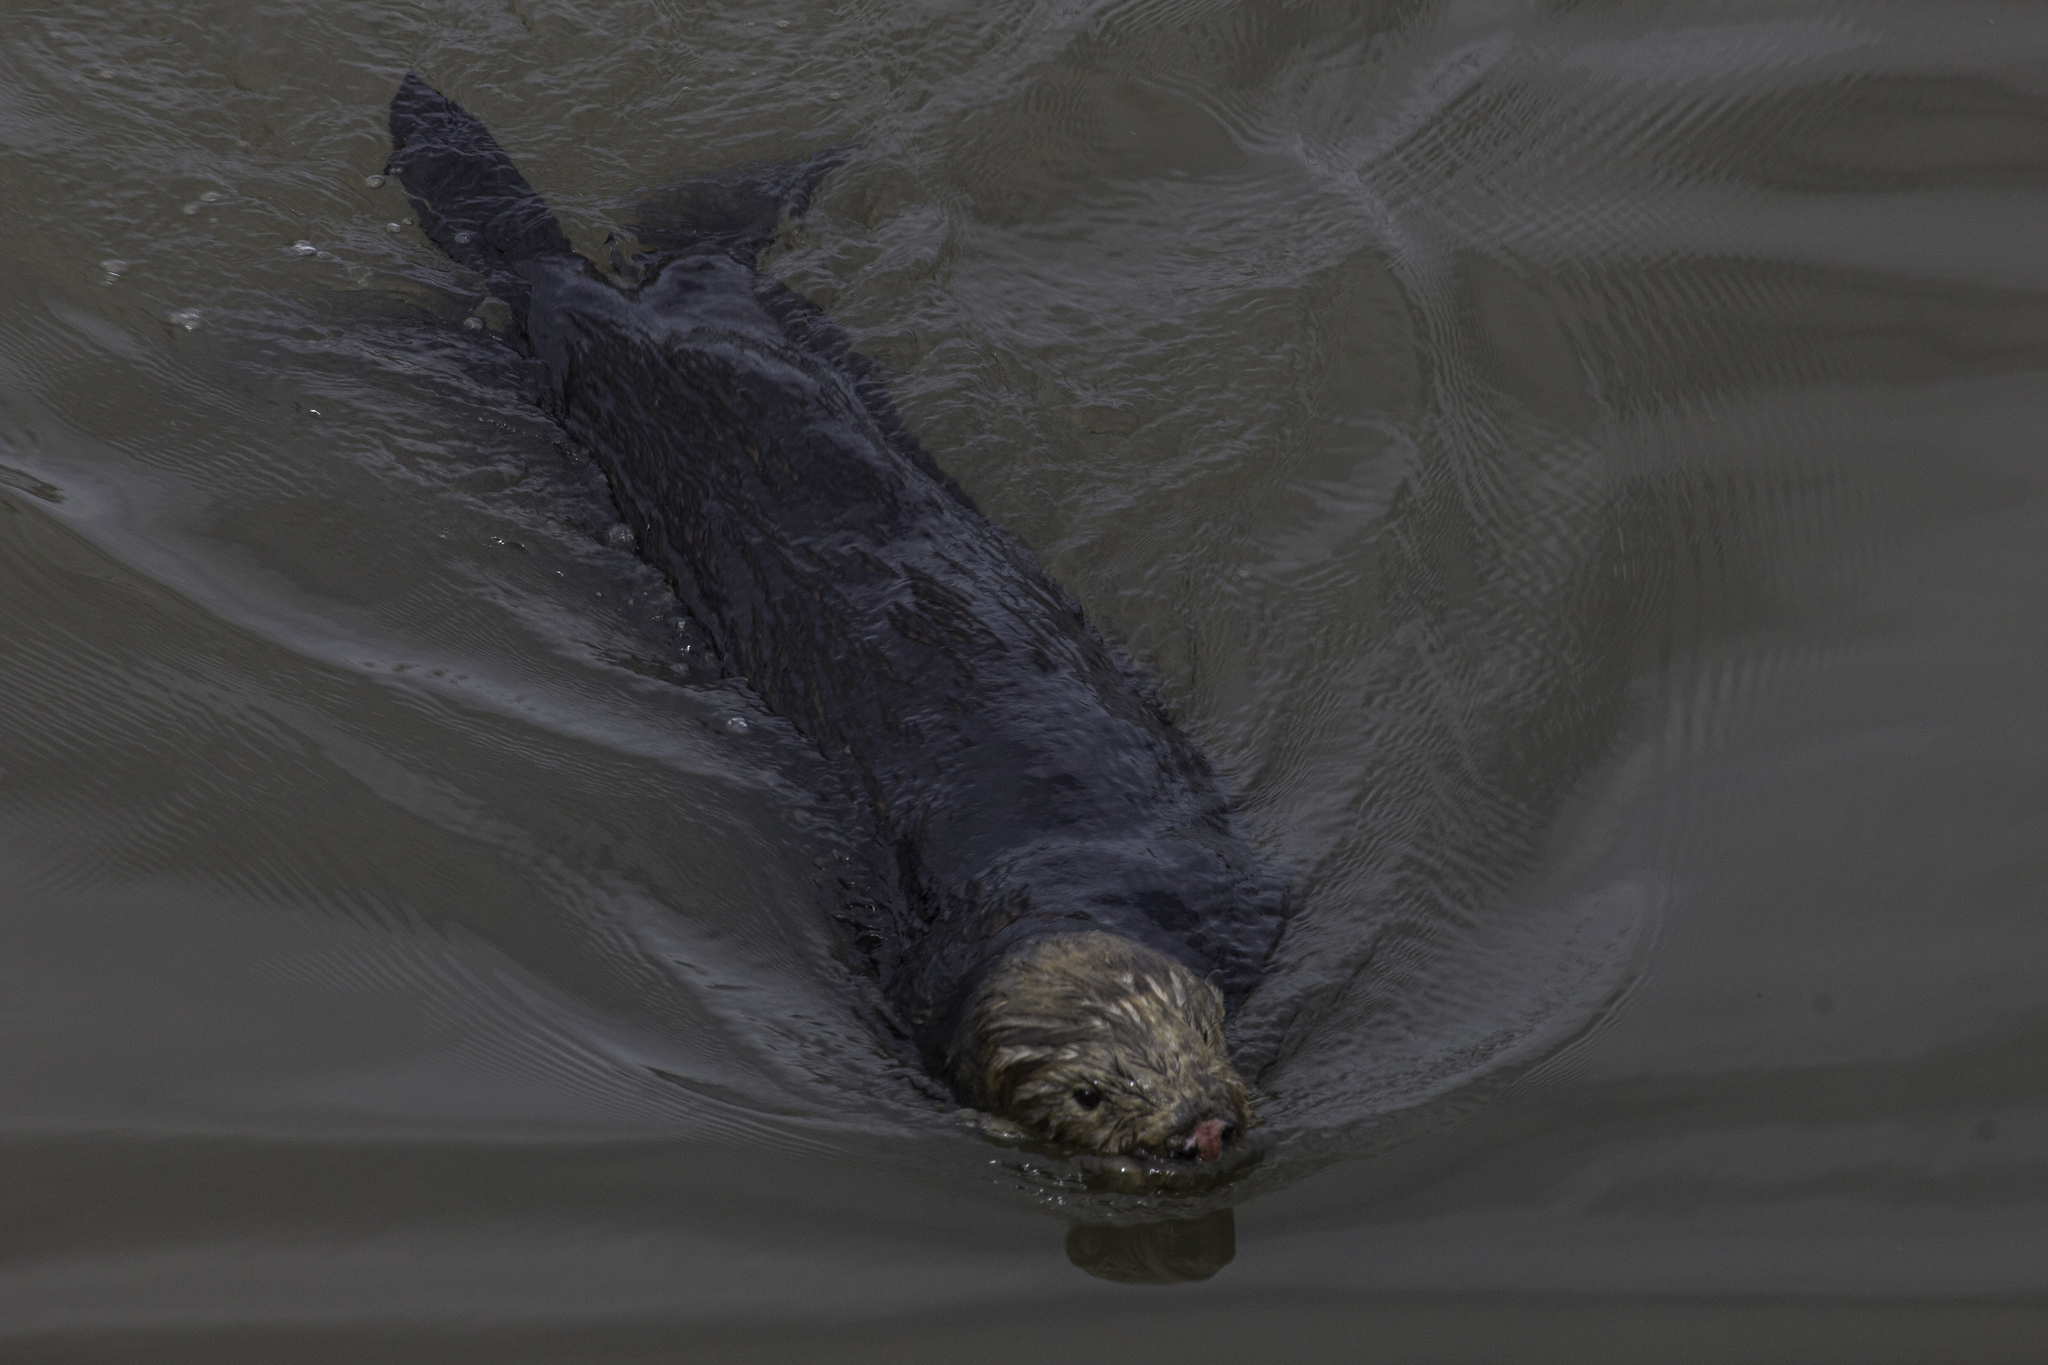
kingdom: Animalia
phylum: Chordata
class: Mammalia
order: Carnivora
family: Mustelidae
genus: Enhydra
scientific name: Enhydra lutris
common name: Sea otter
